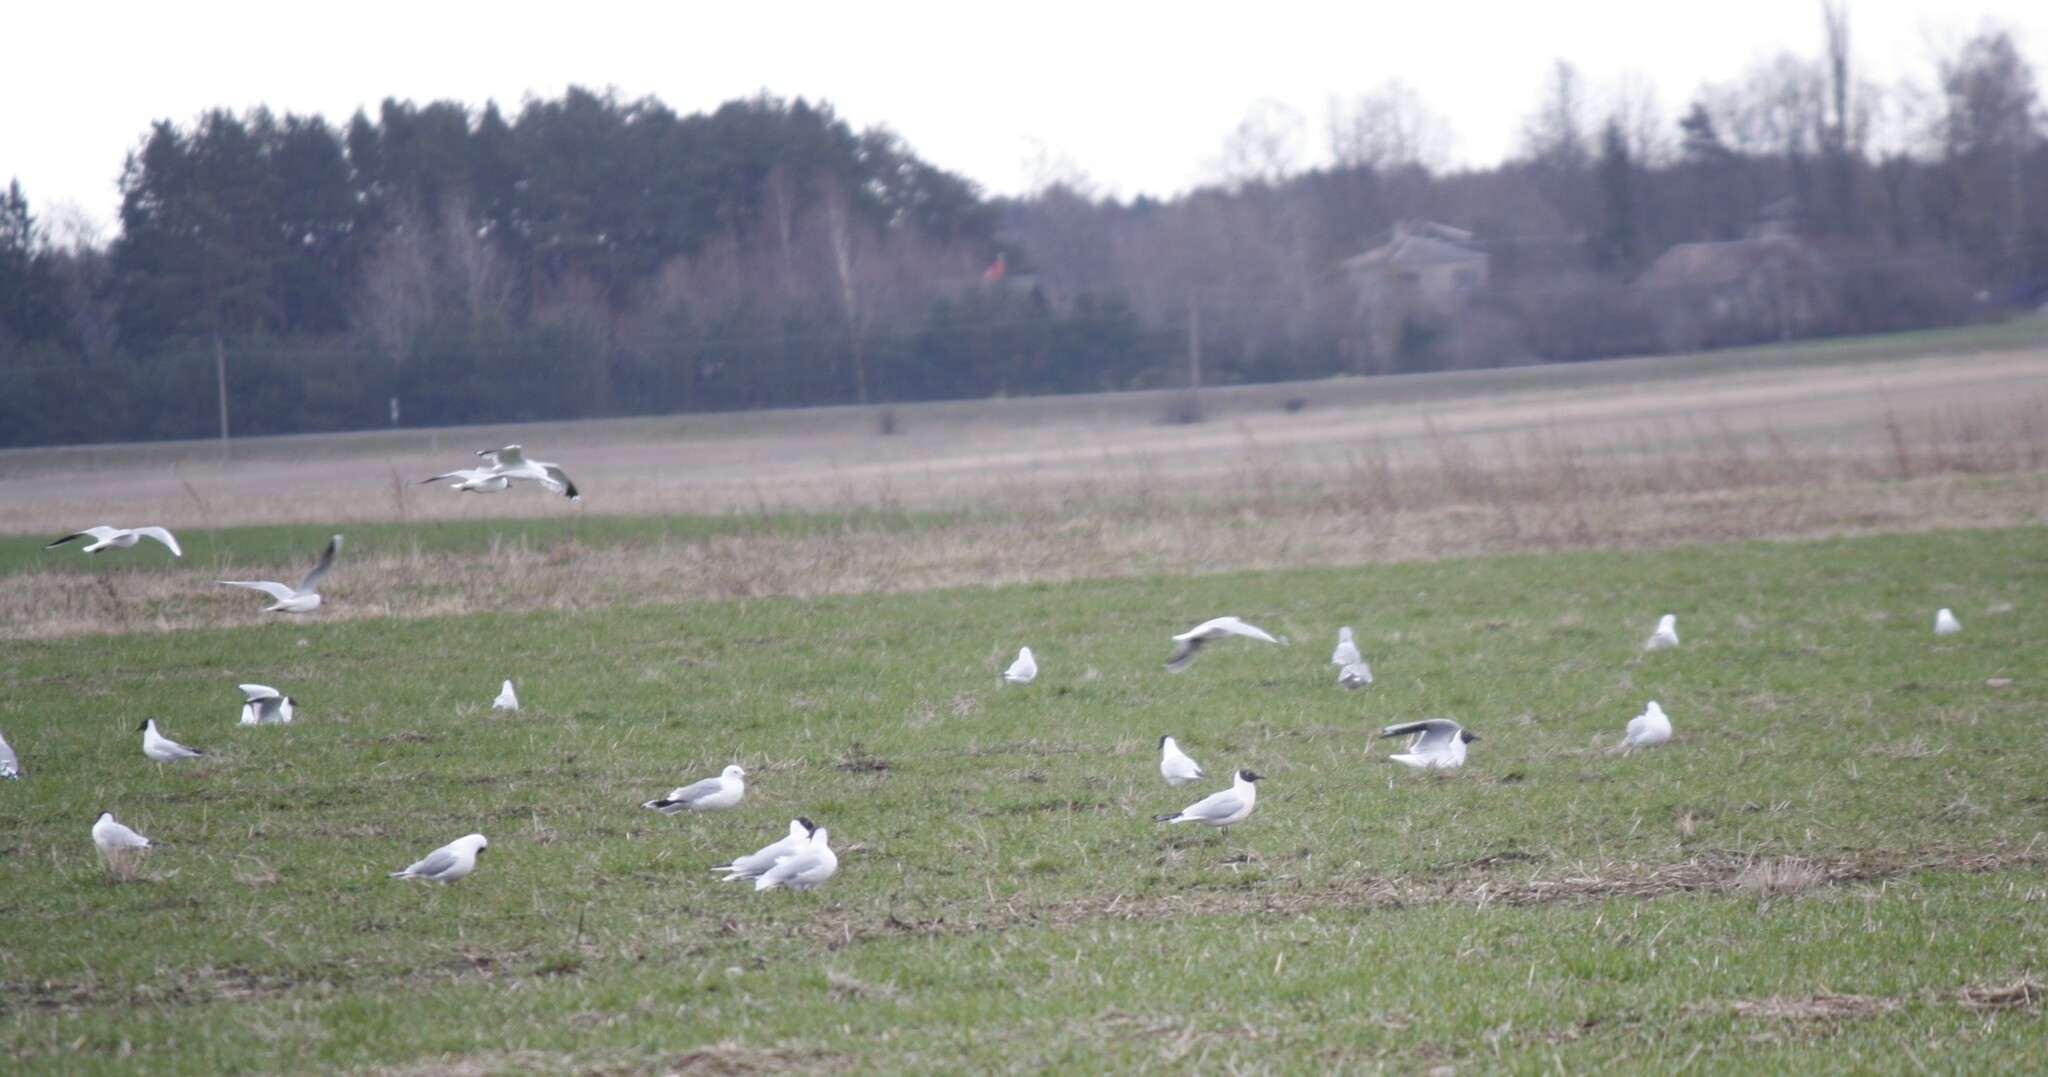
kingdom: Animalia
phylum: Chordata
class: Aves
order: Charadriiformes
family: Laridae
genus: Chroicocephalus
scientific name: Chroicocephalus ridibundus
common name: Black-headed gull
